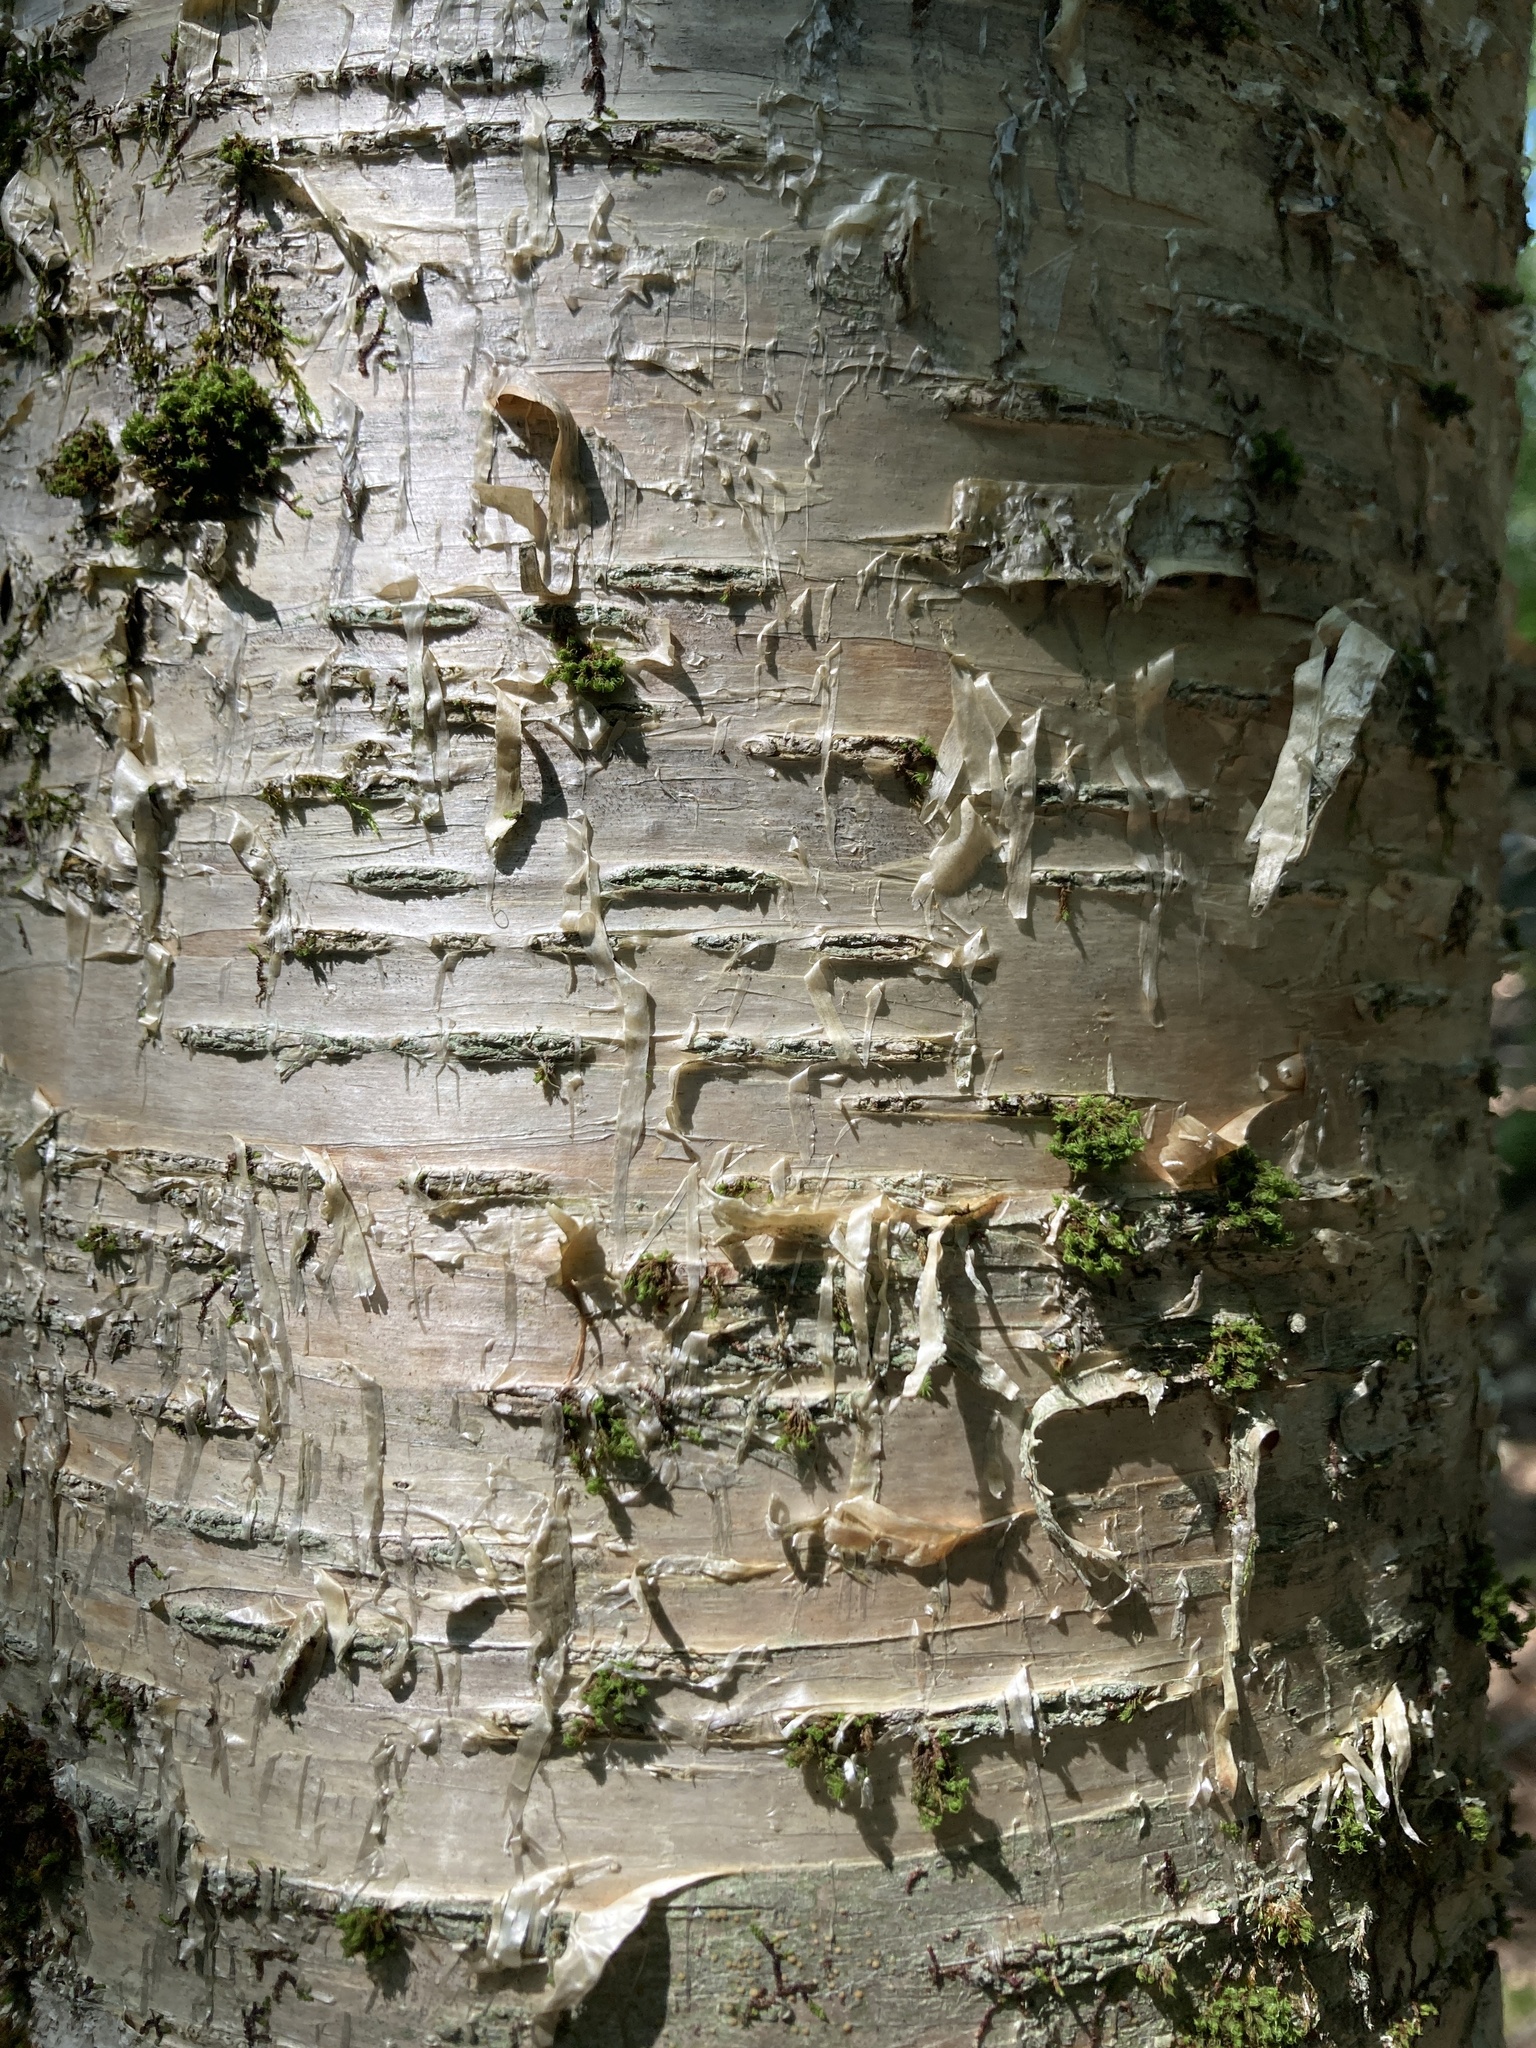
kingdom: Plantae
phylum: Tracheophyta
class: Magnoliopsida
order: Fagales
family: Betulaceae
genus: Betula
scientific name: Betula alleghaniensis
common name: Yellow birch
